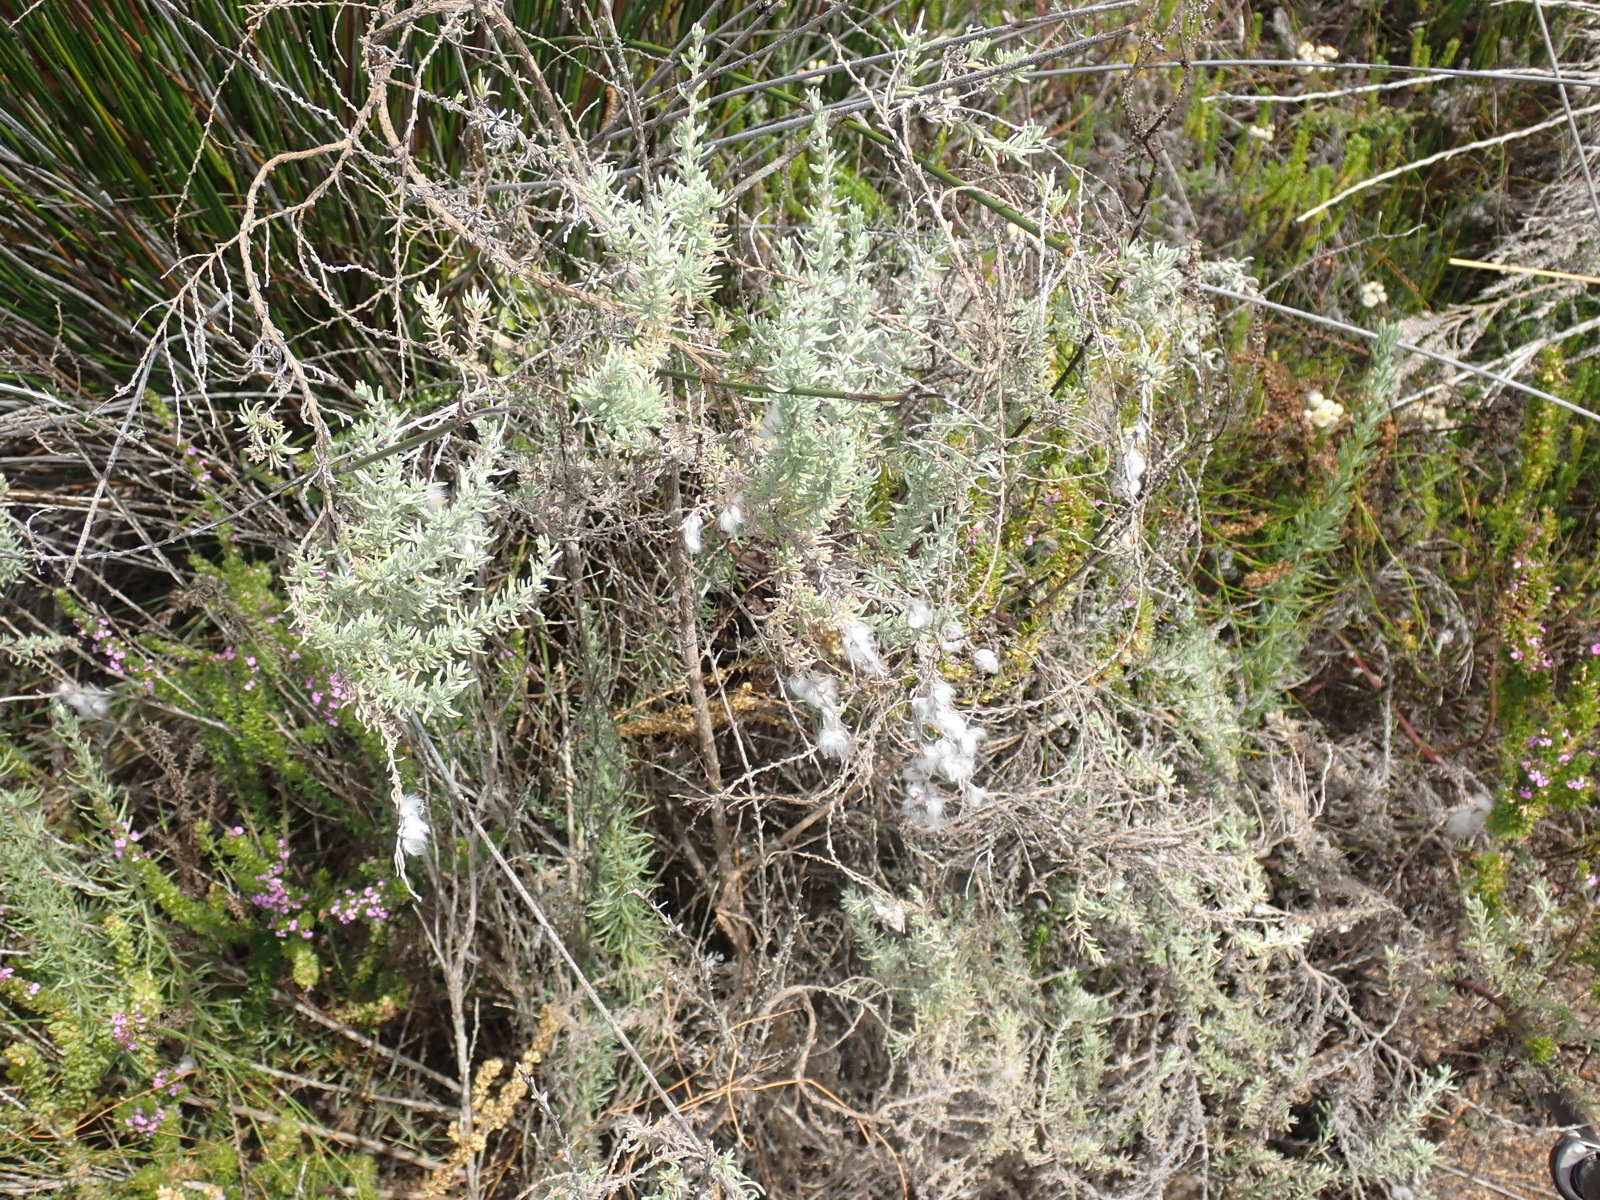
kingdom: Plantae
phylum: Tracheophyta
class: Magnoliopsida
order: Asterales
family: Asteraceae
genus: Eriocephalus
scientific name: Eriocephalus racemosus
